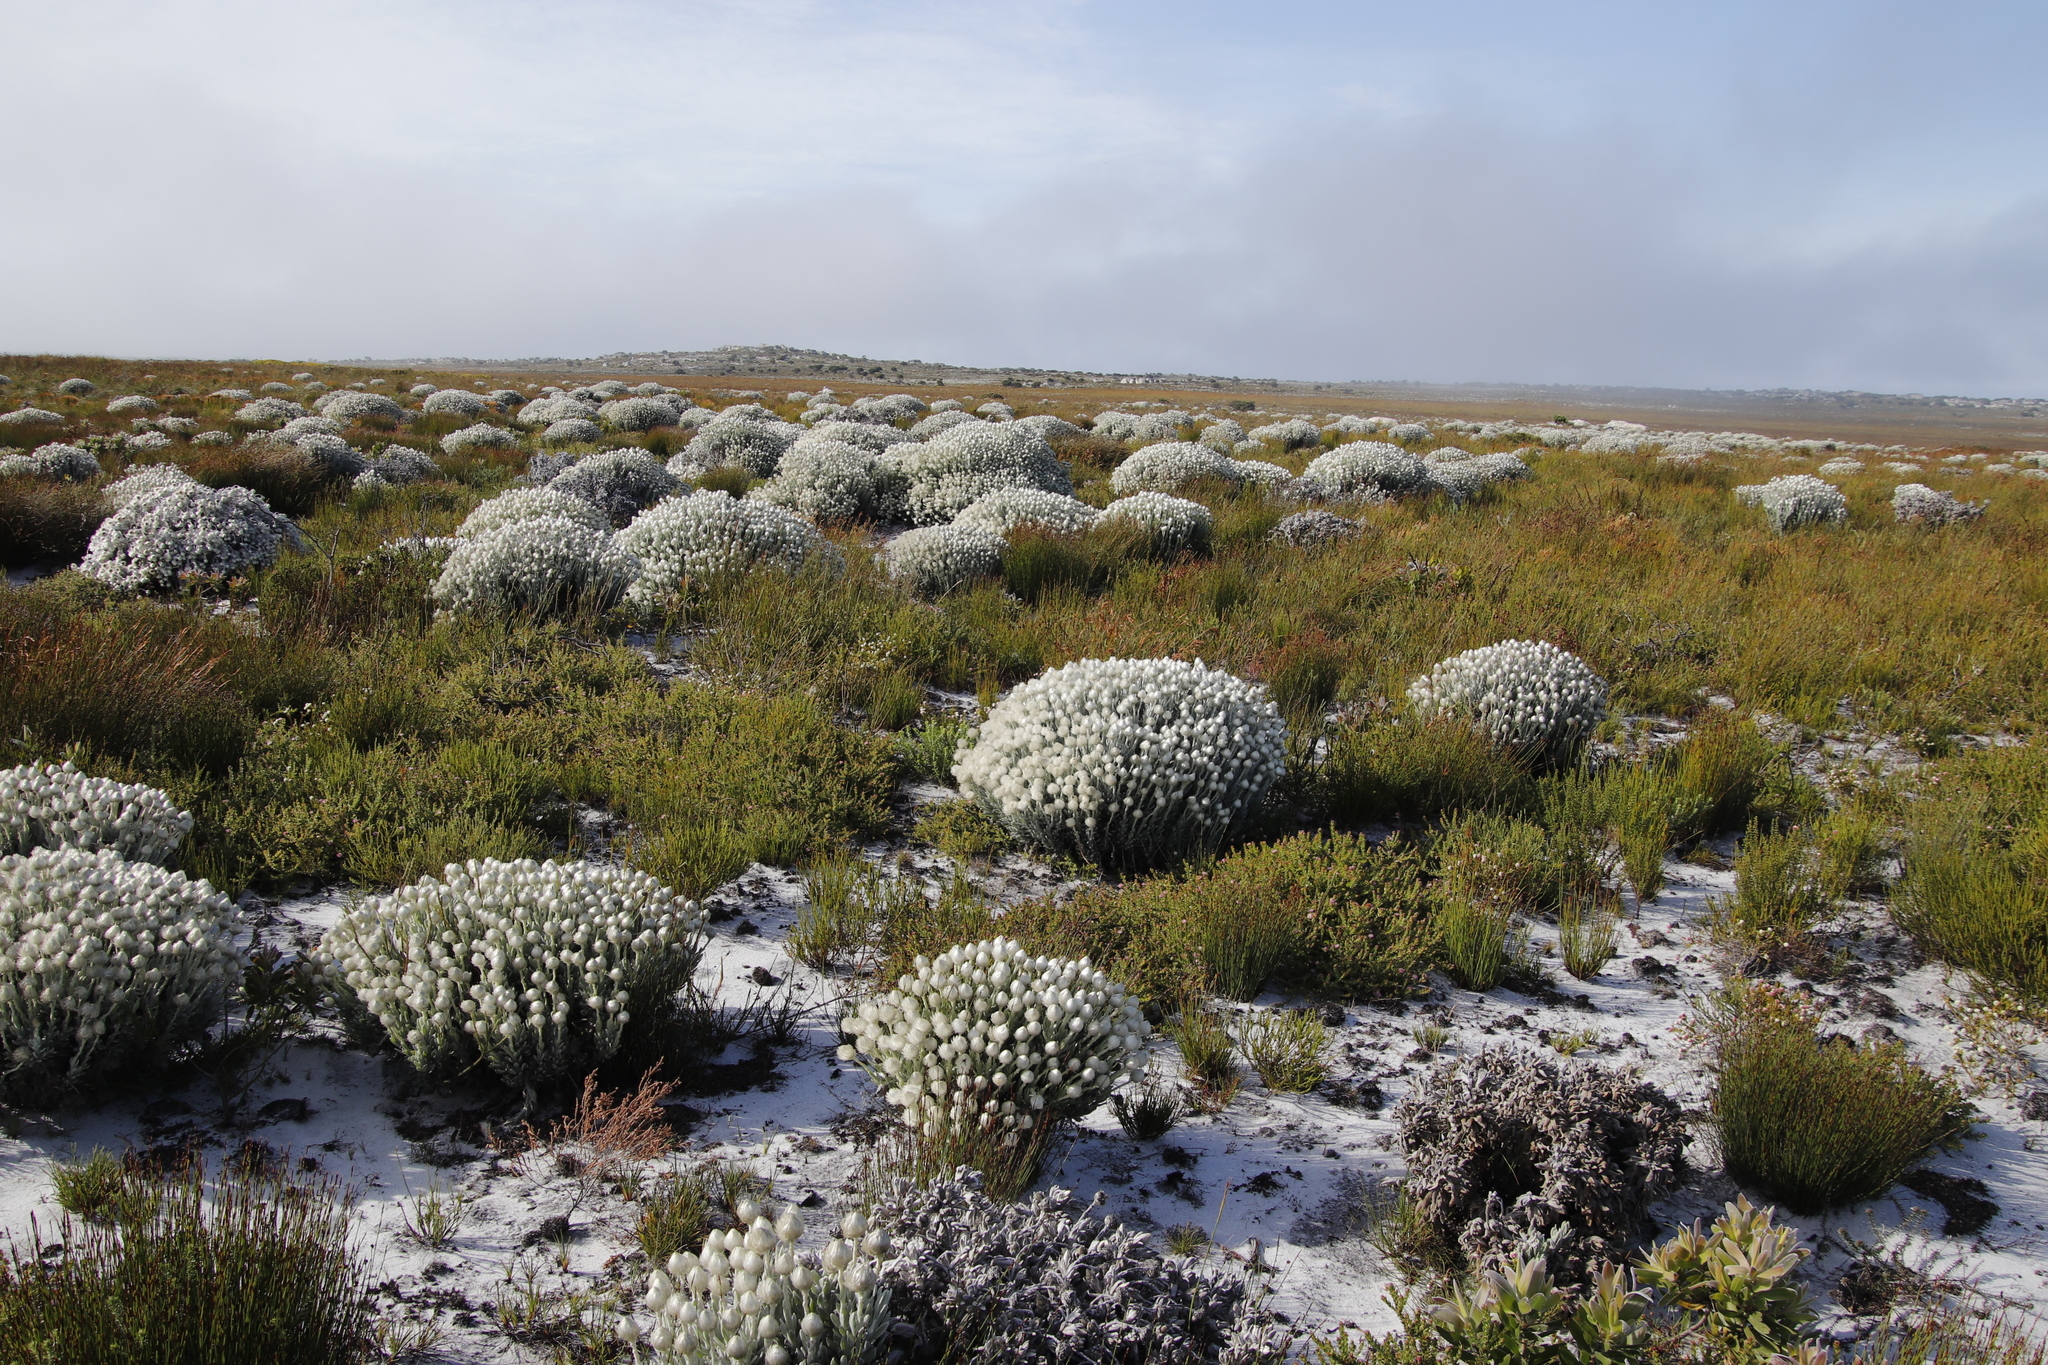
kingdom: Plantae
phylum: Tracheophyta
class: Magnoliopsida
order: Asterales
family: Asteraceae
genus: Syncarpha
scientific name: Syncarpha vestita
